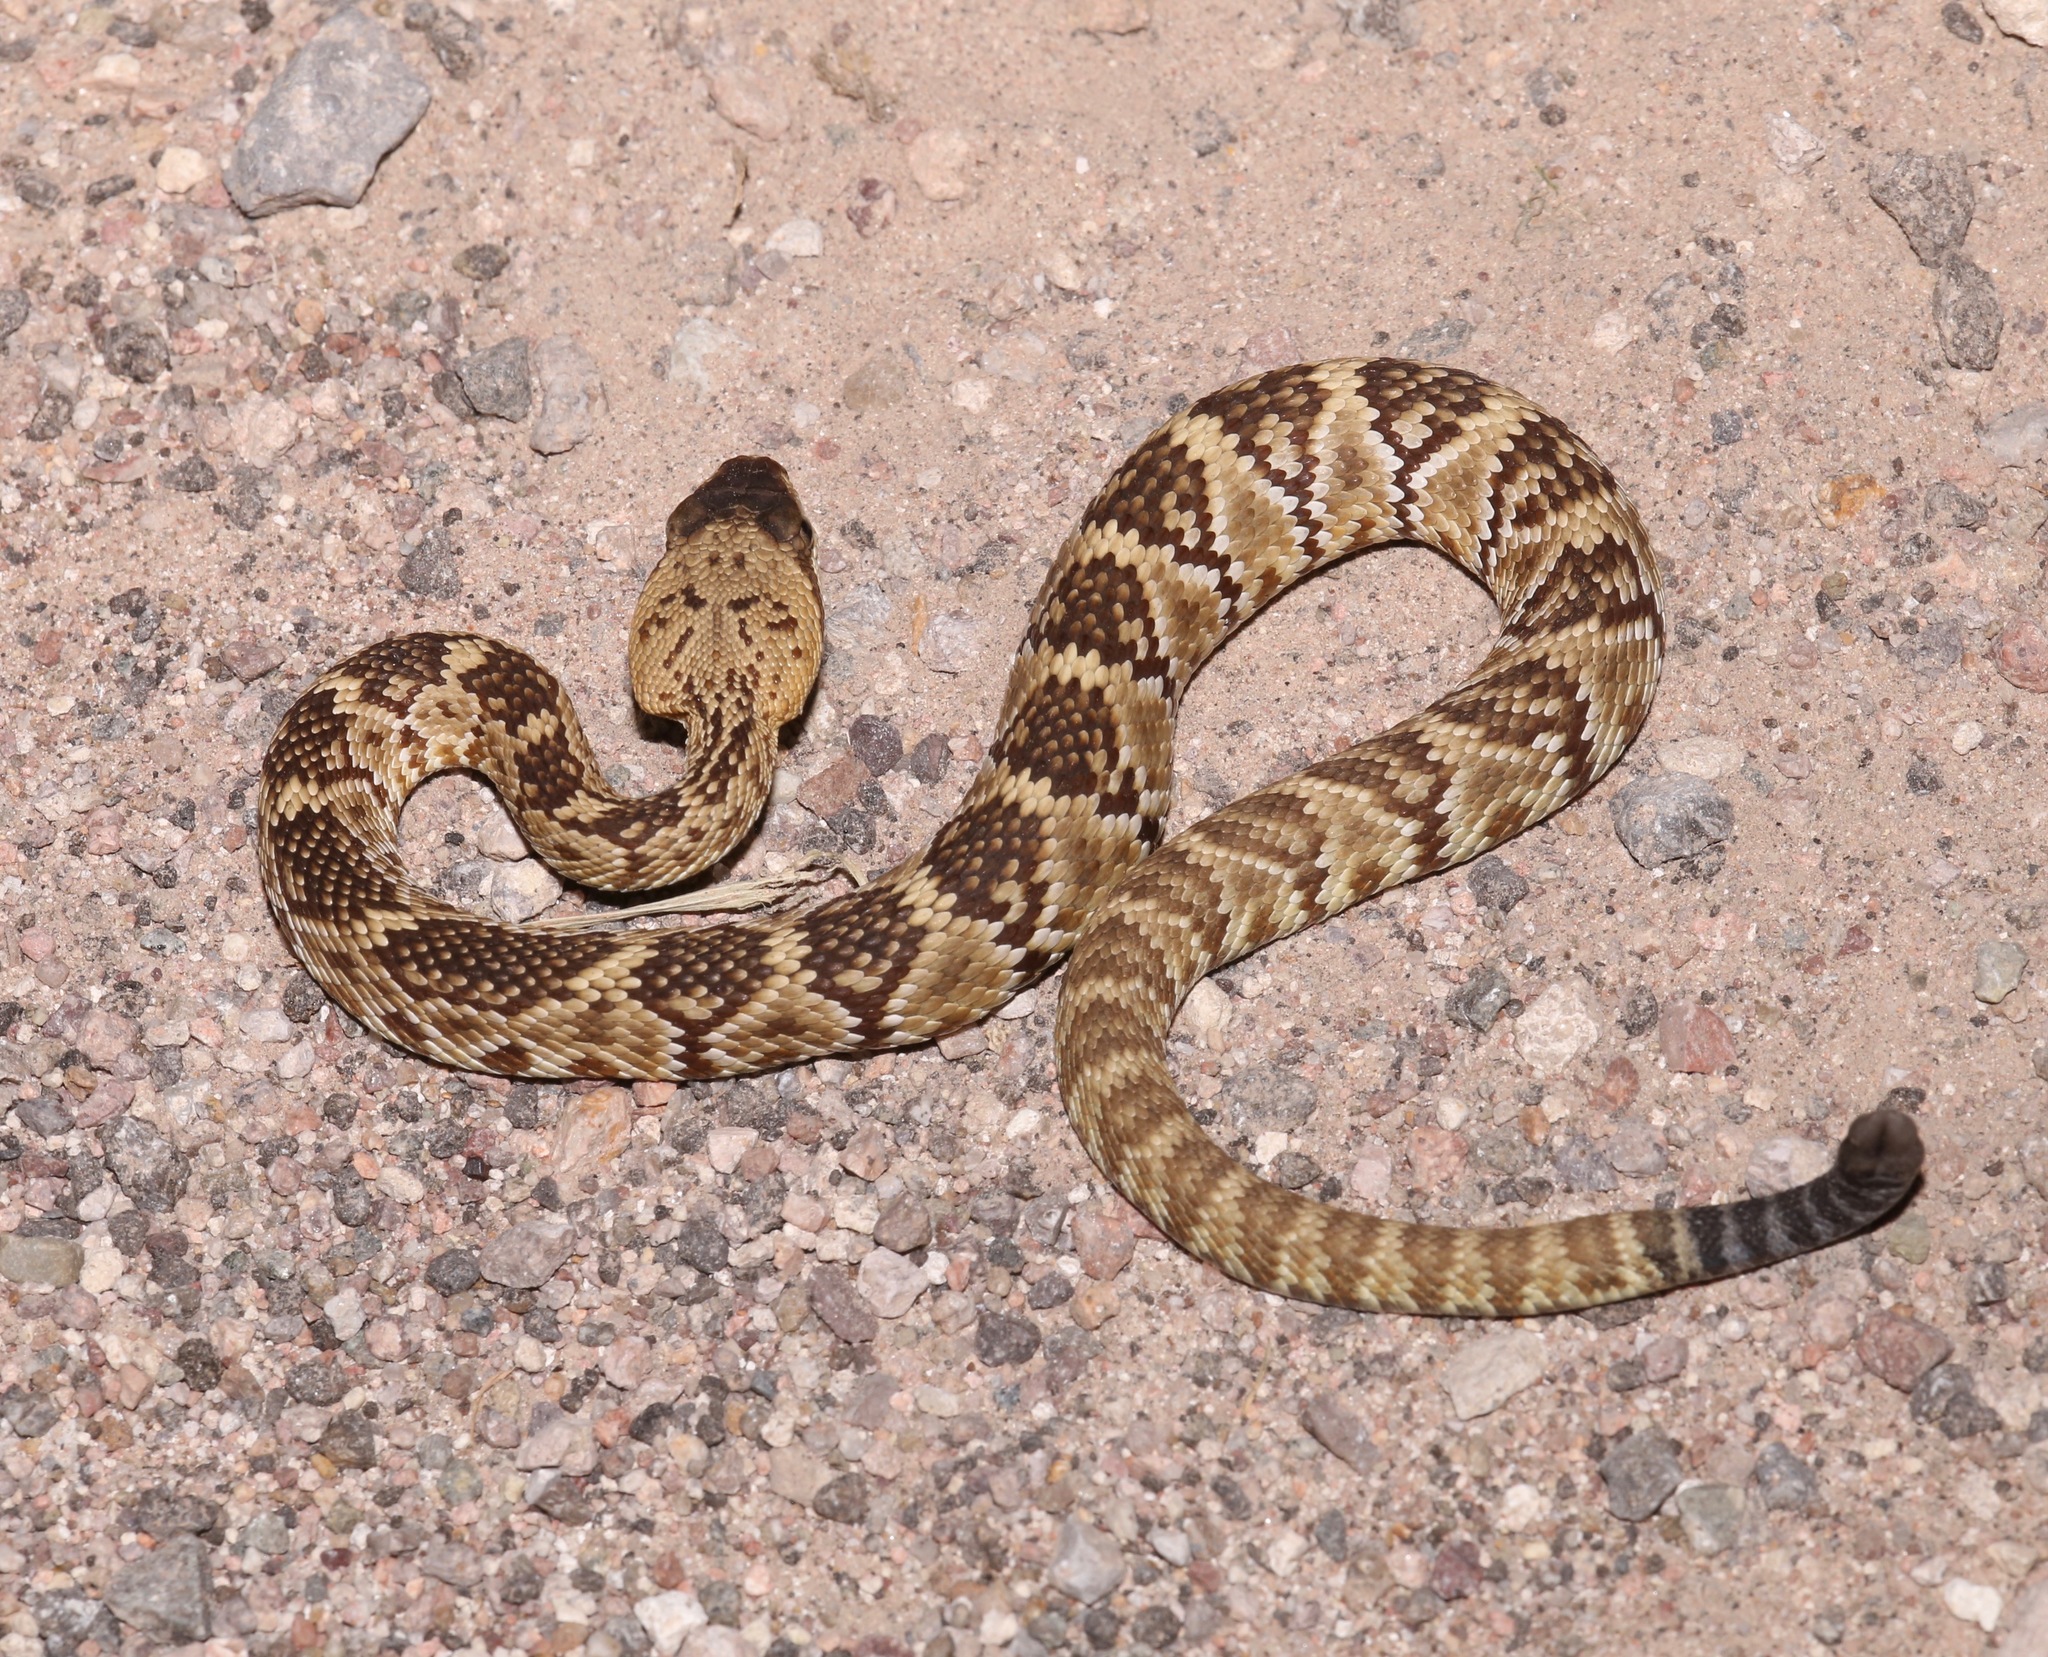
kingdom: Animalia
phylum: Chordata
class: Squamata
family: Viperidae
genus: Crotalus
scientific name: Crotalus molossus
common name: Black tailed rattlesnake
